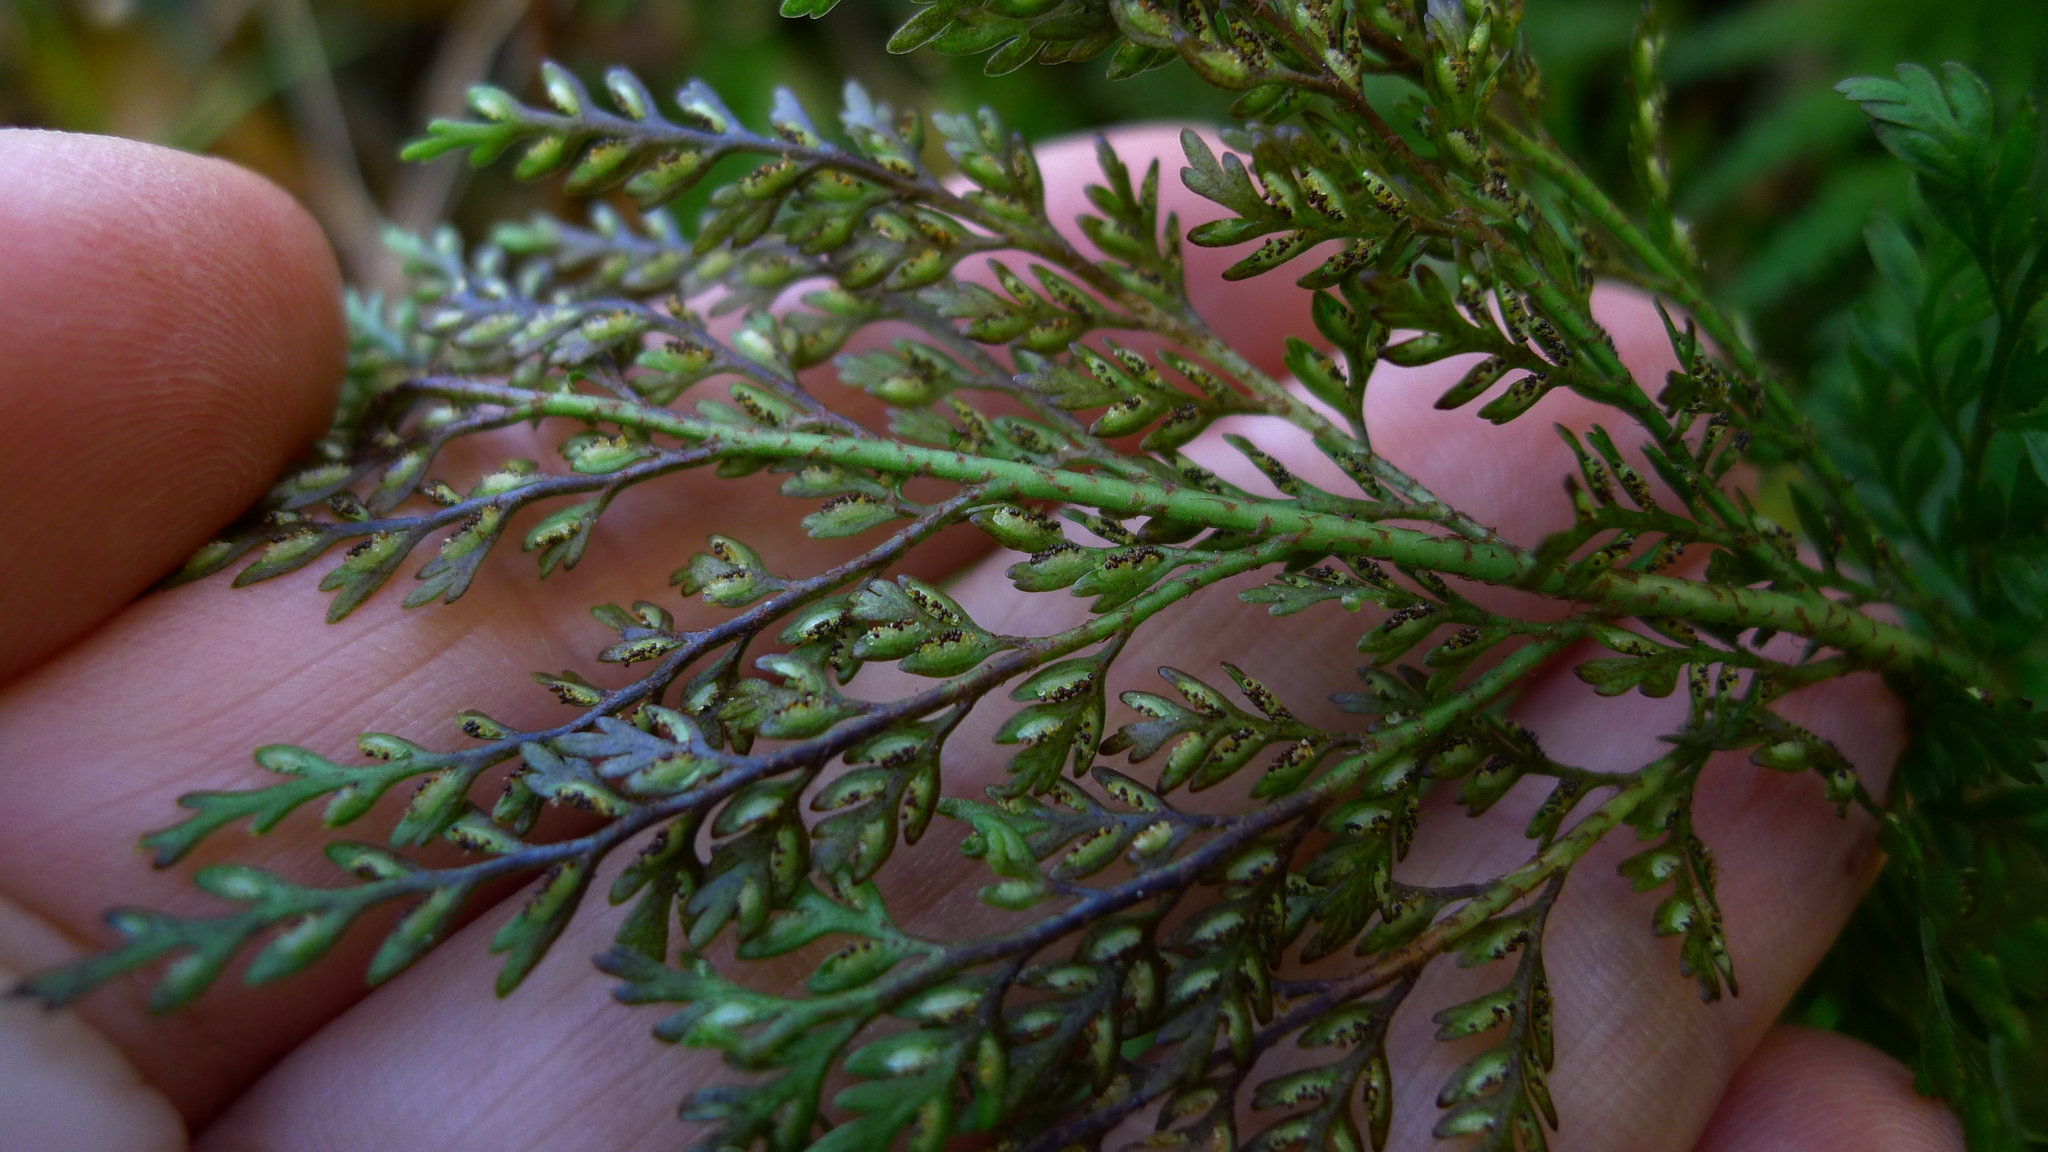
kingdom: Plantae
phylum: Tracheophyta
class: Polypodiopsida
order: Polypodiales
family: Aspleniaceae
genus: Asplenium
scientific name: Asplenium hookerianum
